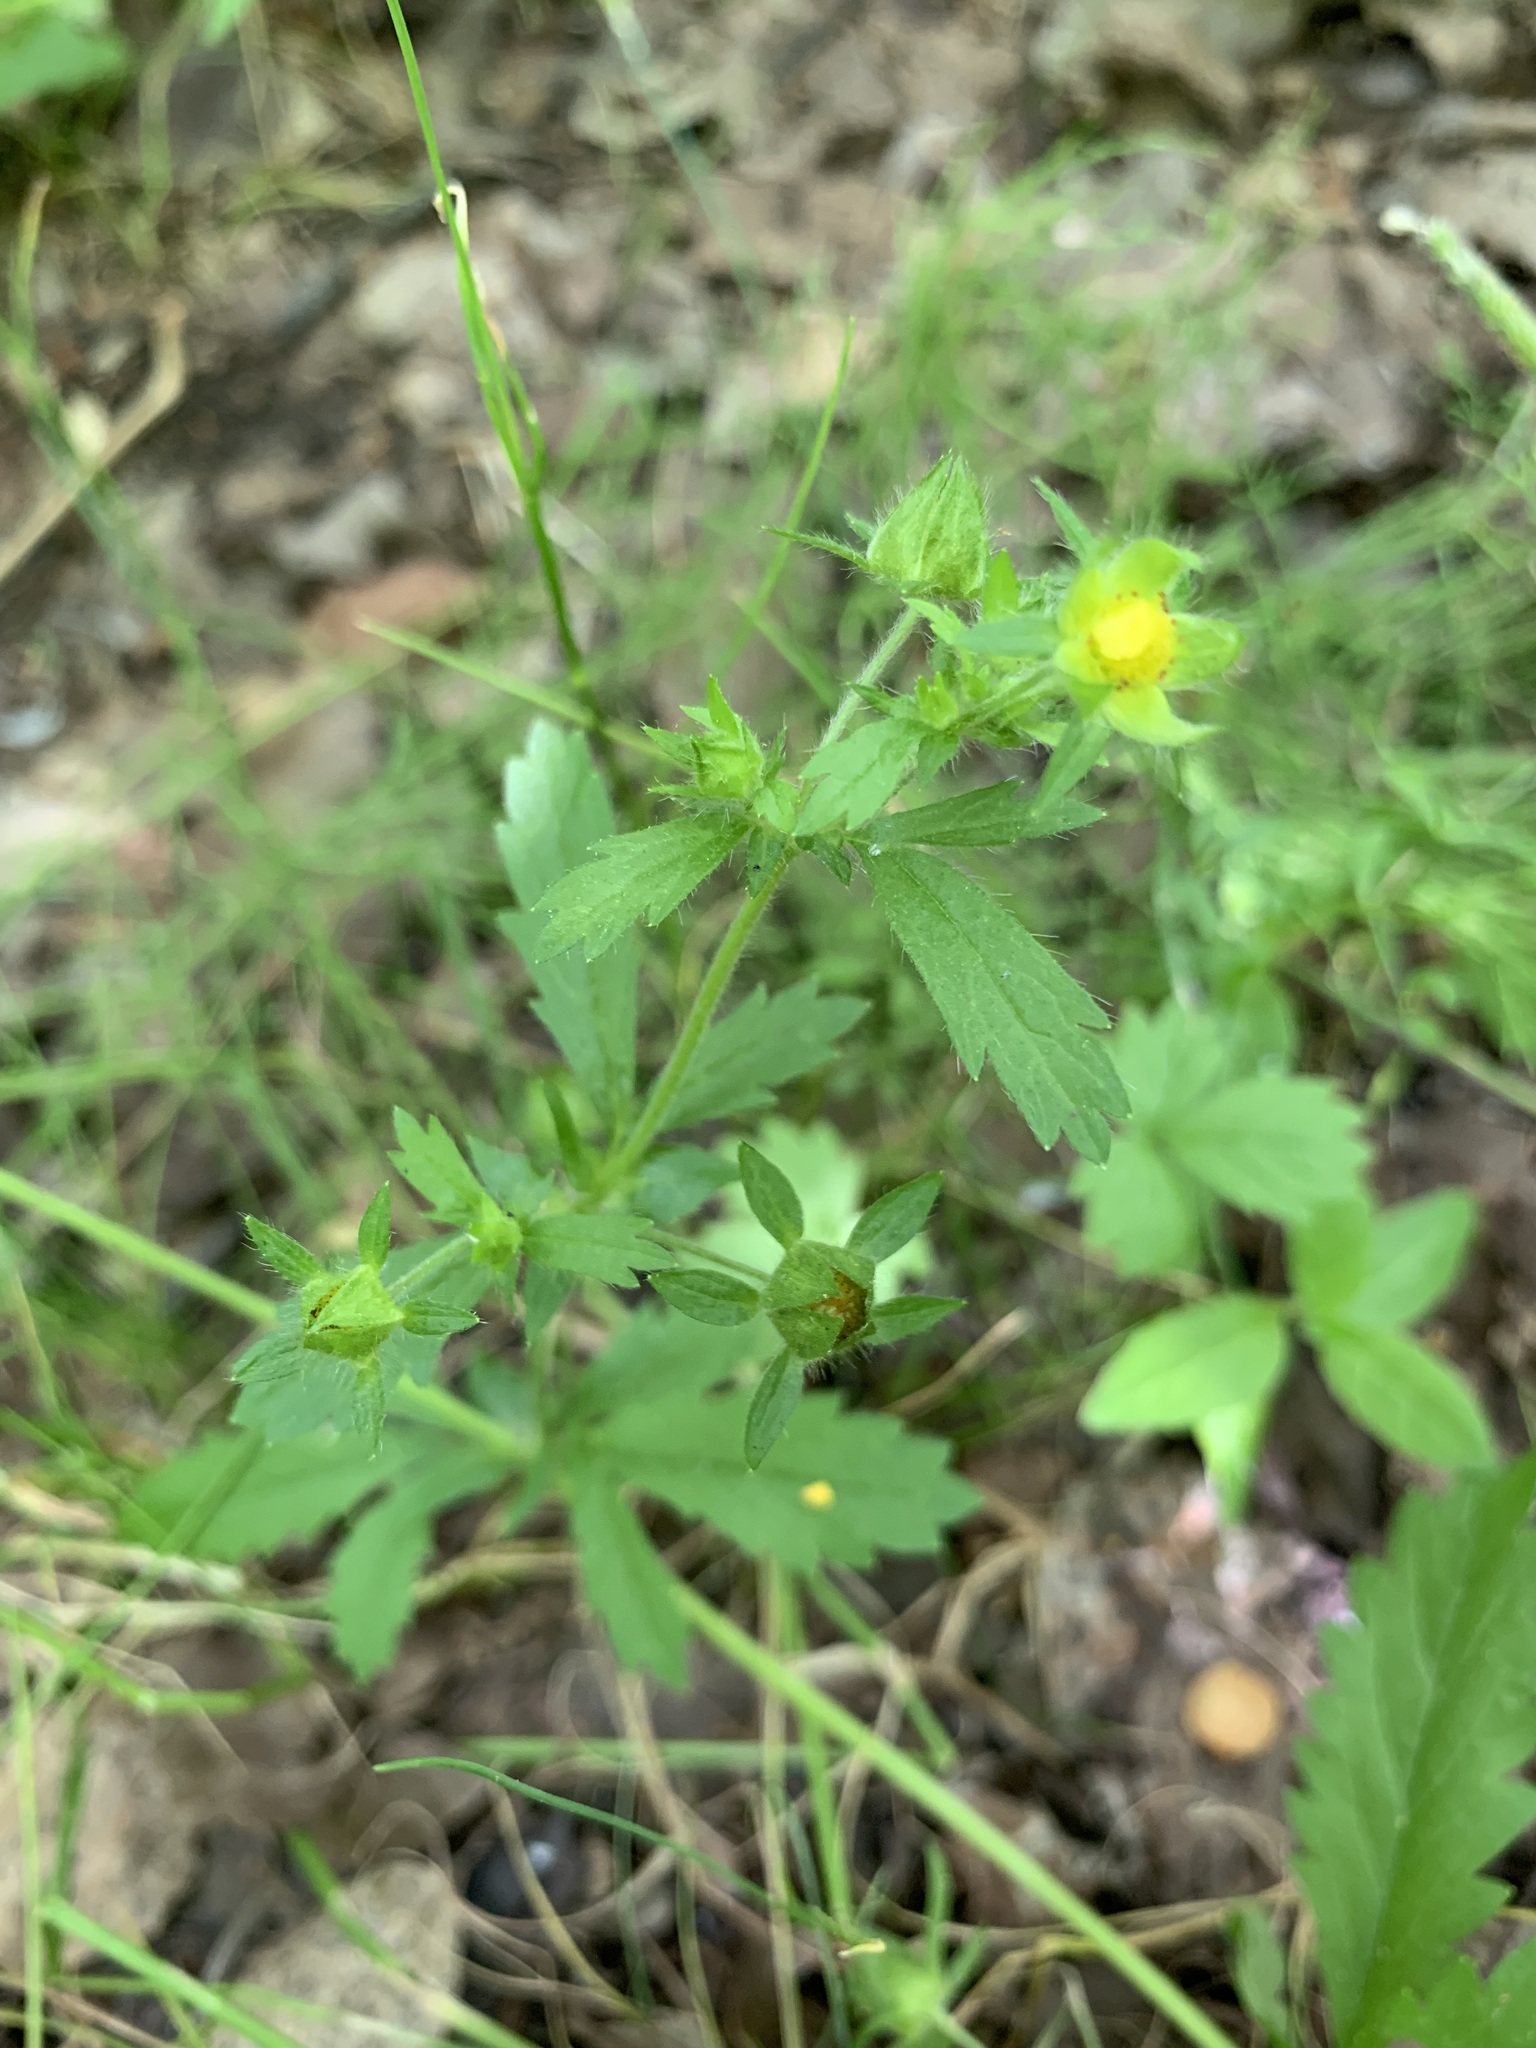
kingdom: Plantae
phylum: Tracheophyta
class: Magnoliopsida
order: Rosales
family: Rosaceae
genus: Potentilla
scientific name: Potentilla norvegica
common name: Ternate-leaved cinquefoil
